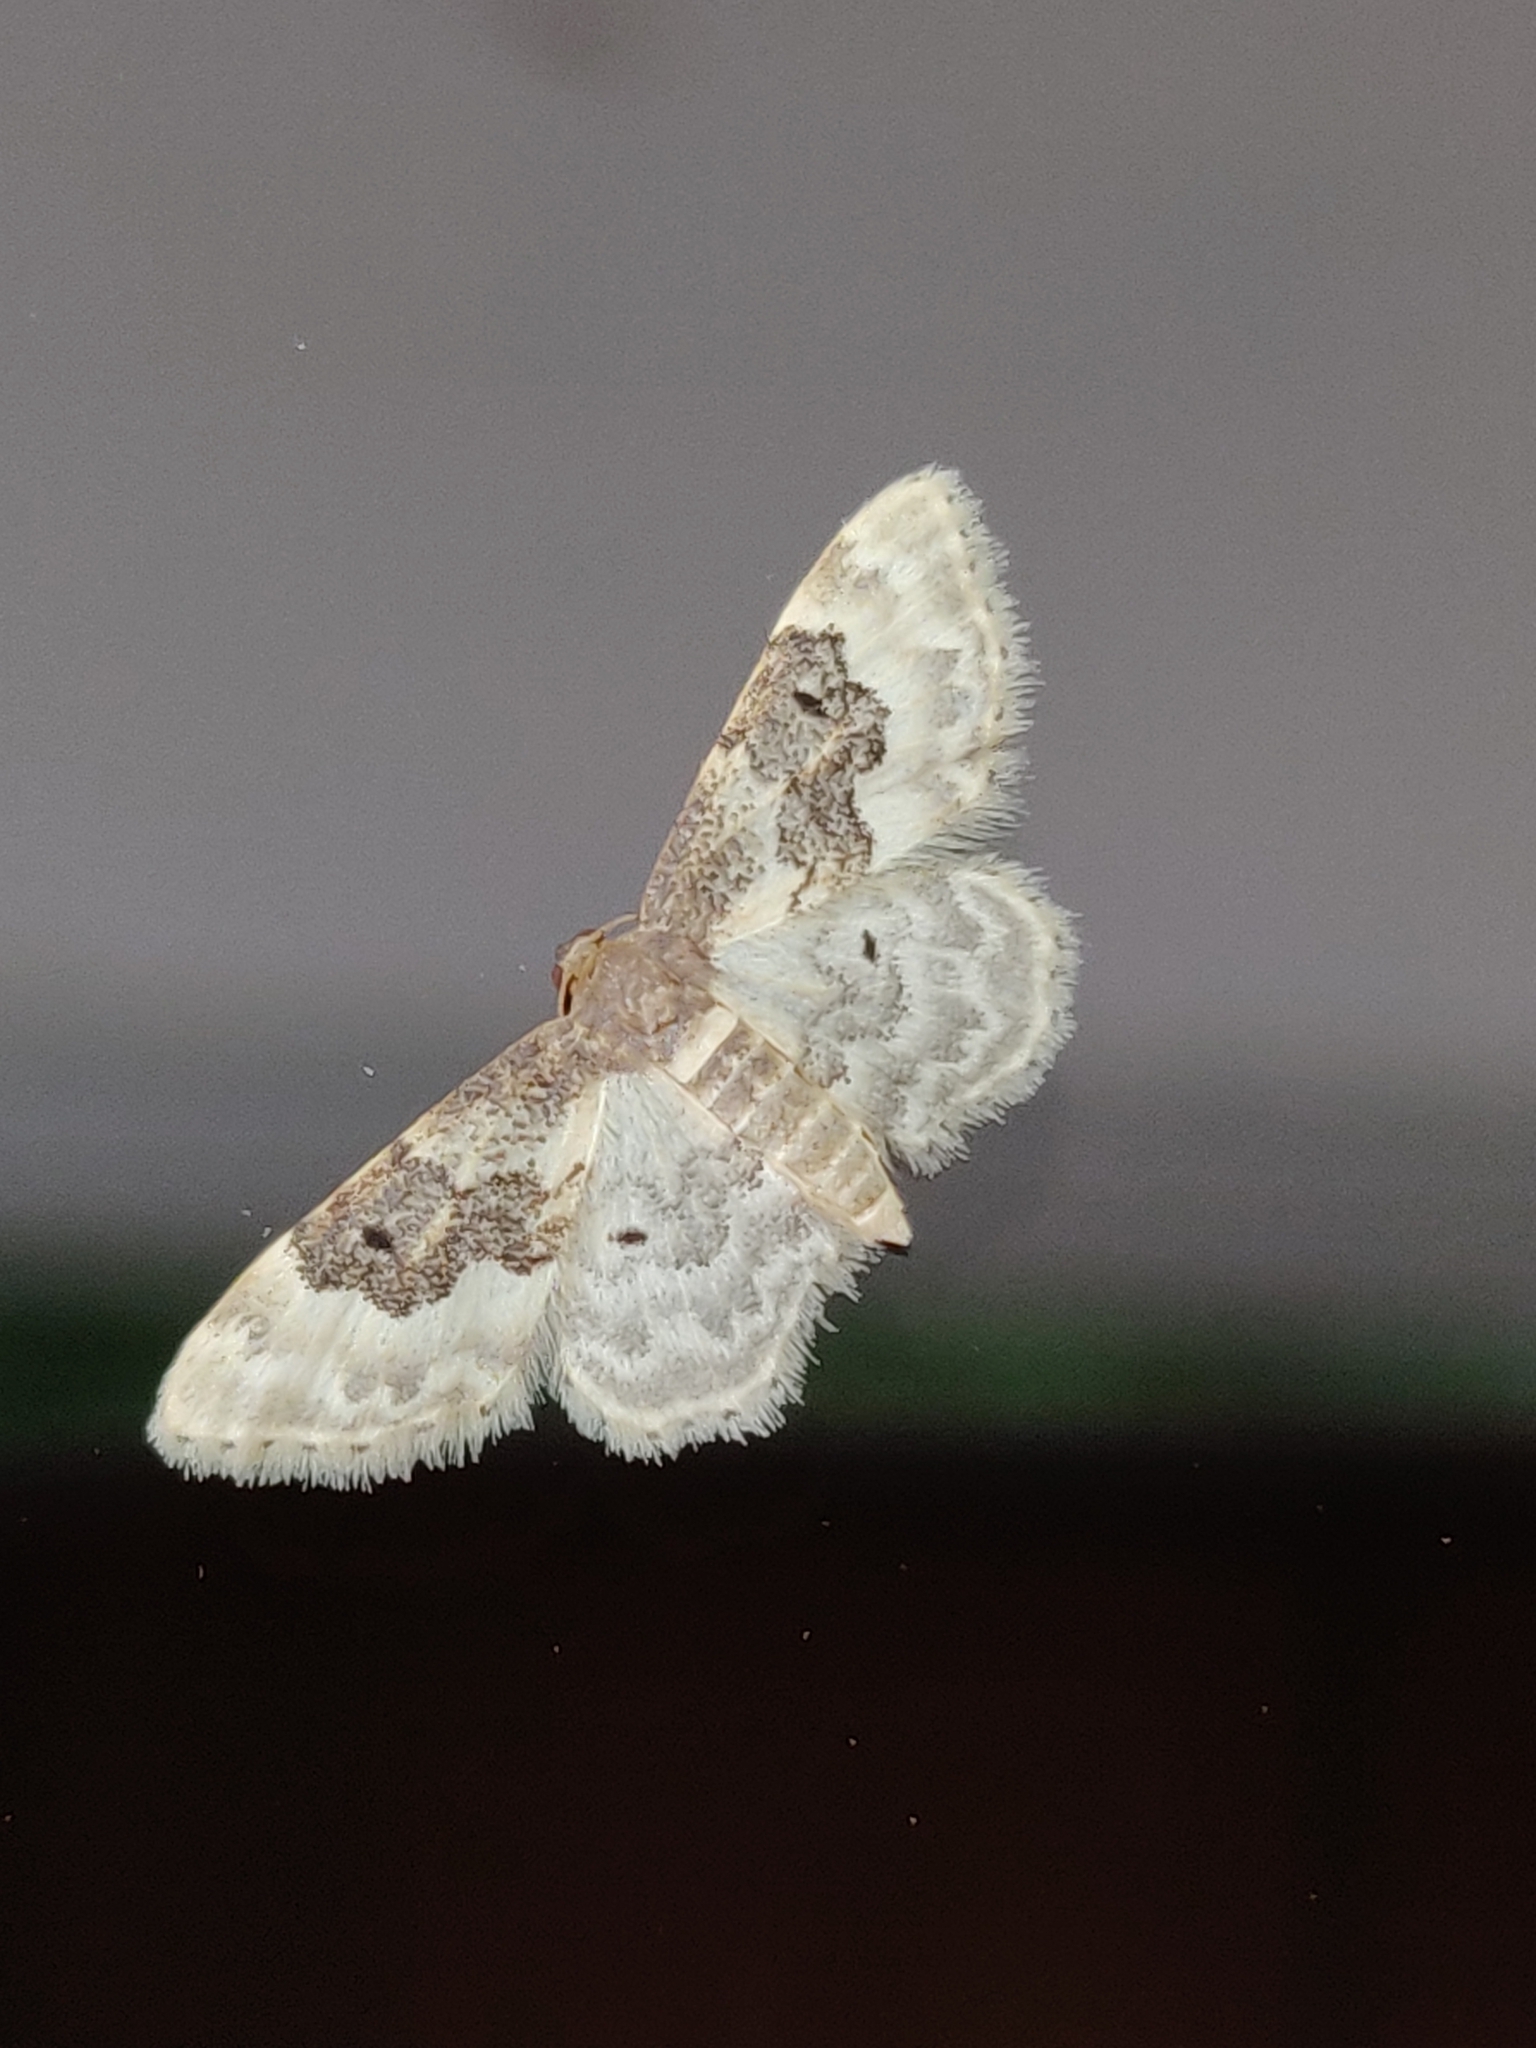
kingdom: Animalia
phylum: Arthropoda
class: Insecta
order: Lepidoptera
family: Geometridae
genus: Idaea
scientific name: Idaea rusticata
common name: Least carpet
